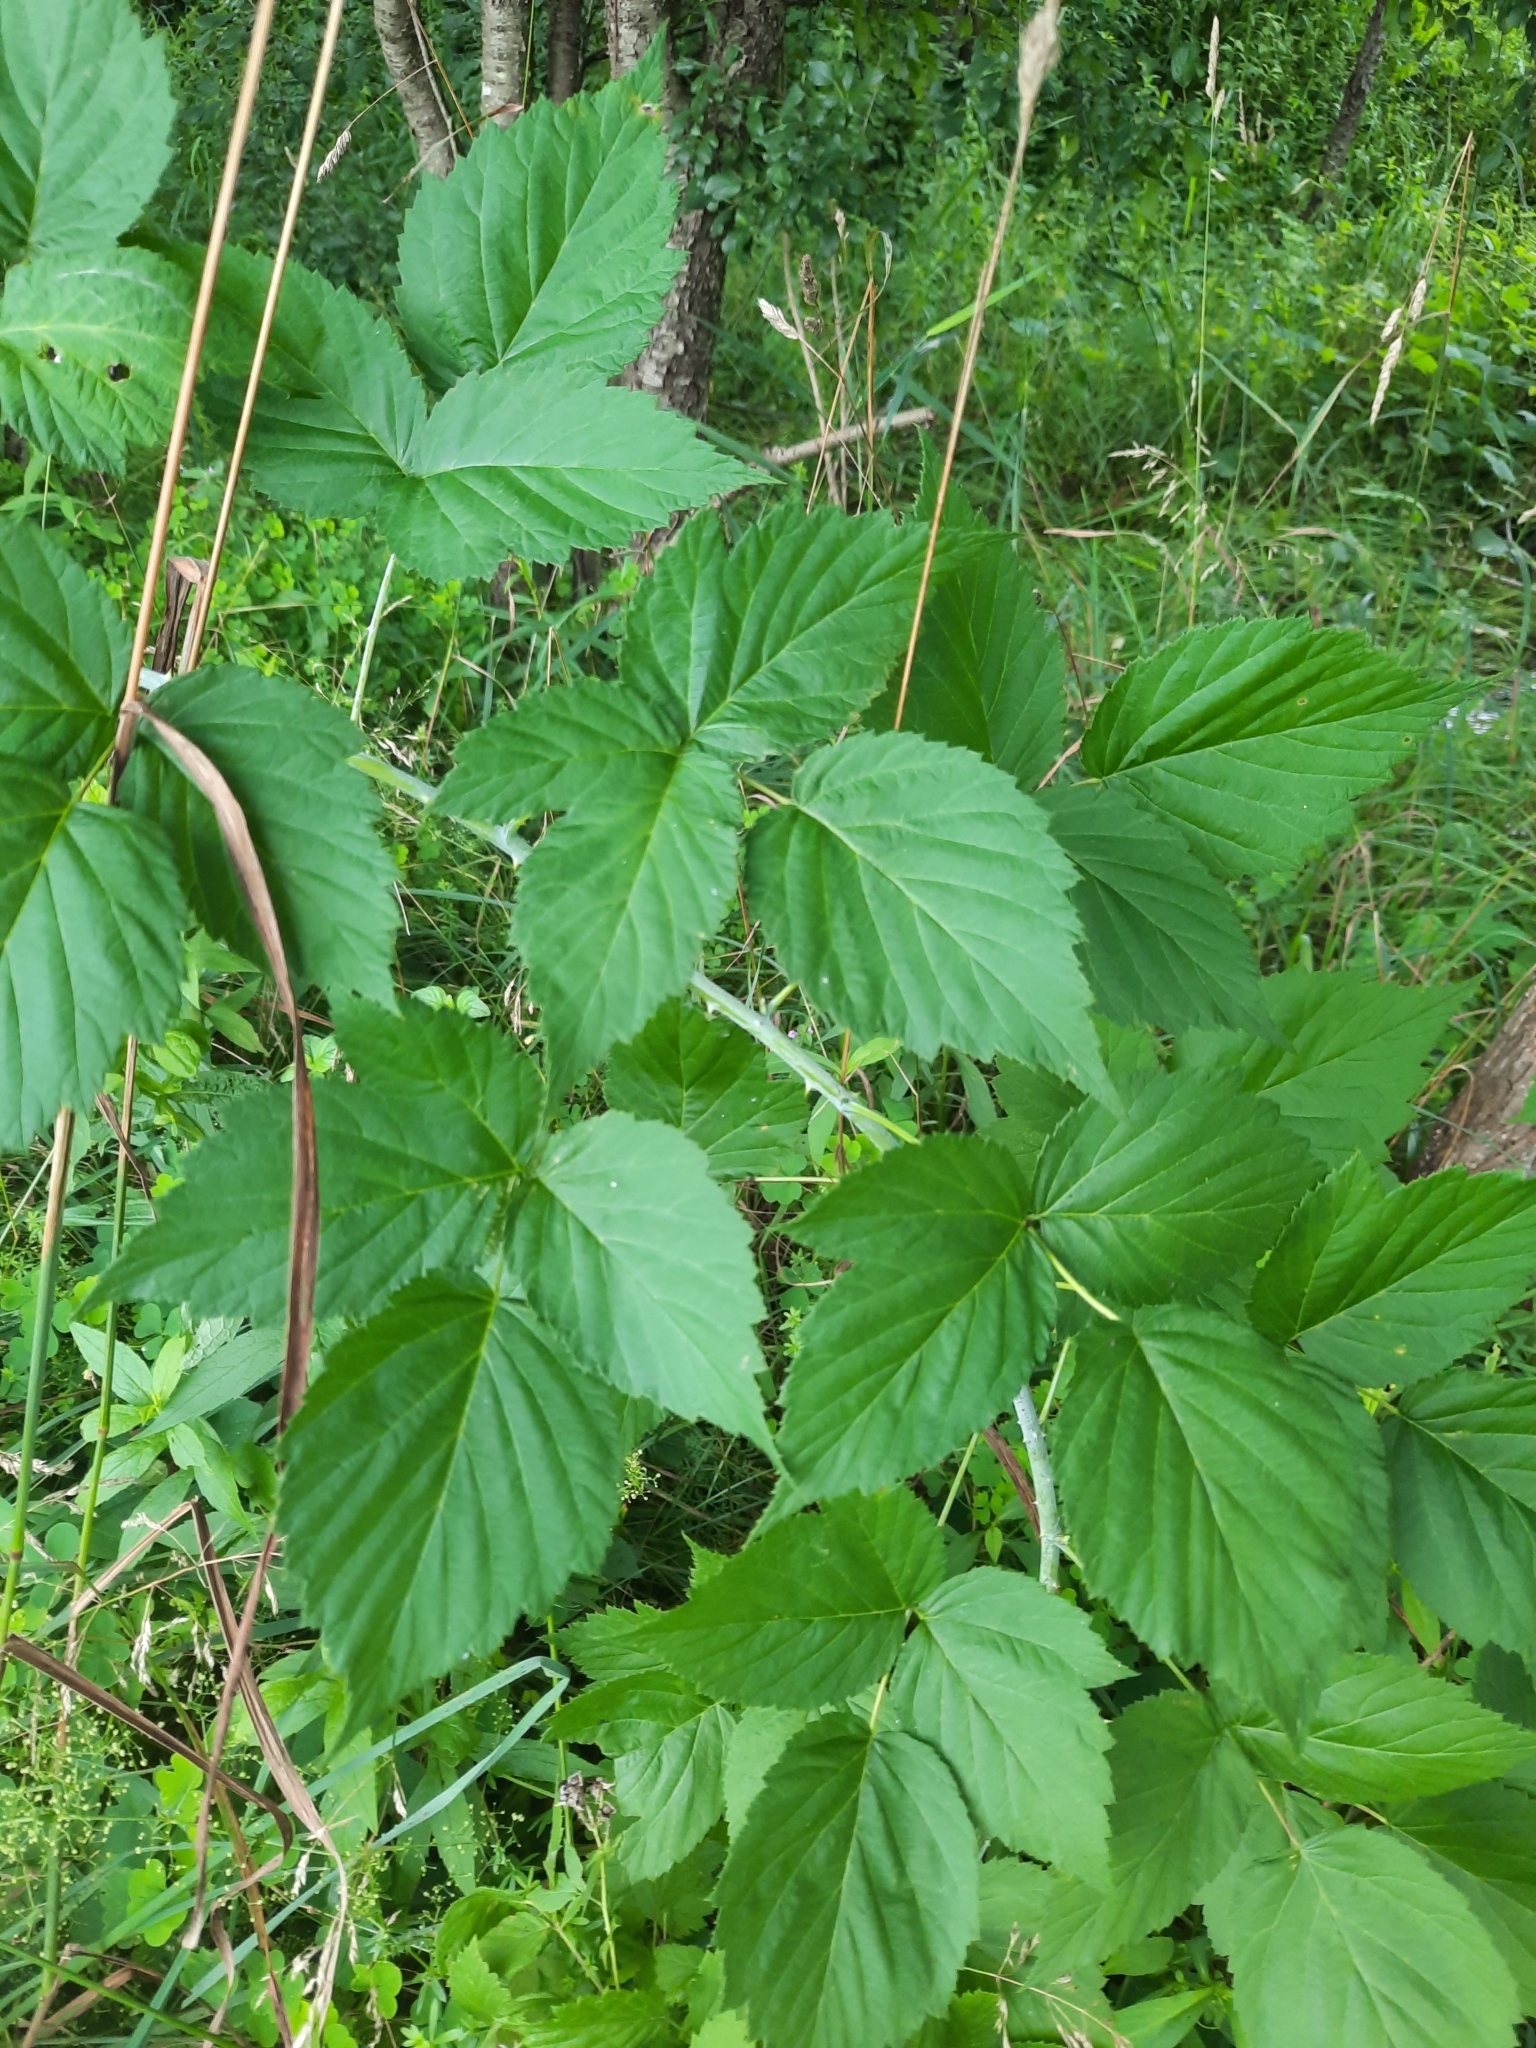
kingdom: Plantae
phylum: Tracheophyta
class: Magnoliopsida
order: Rosales
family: Rosaceae
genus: Rubus
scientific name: Rubus occidentalis
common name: Black raspberry
